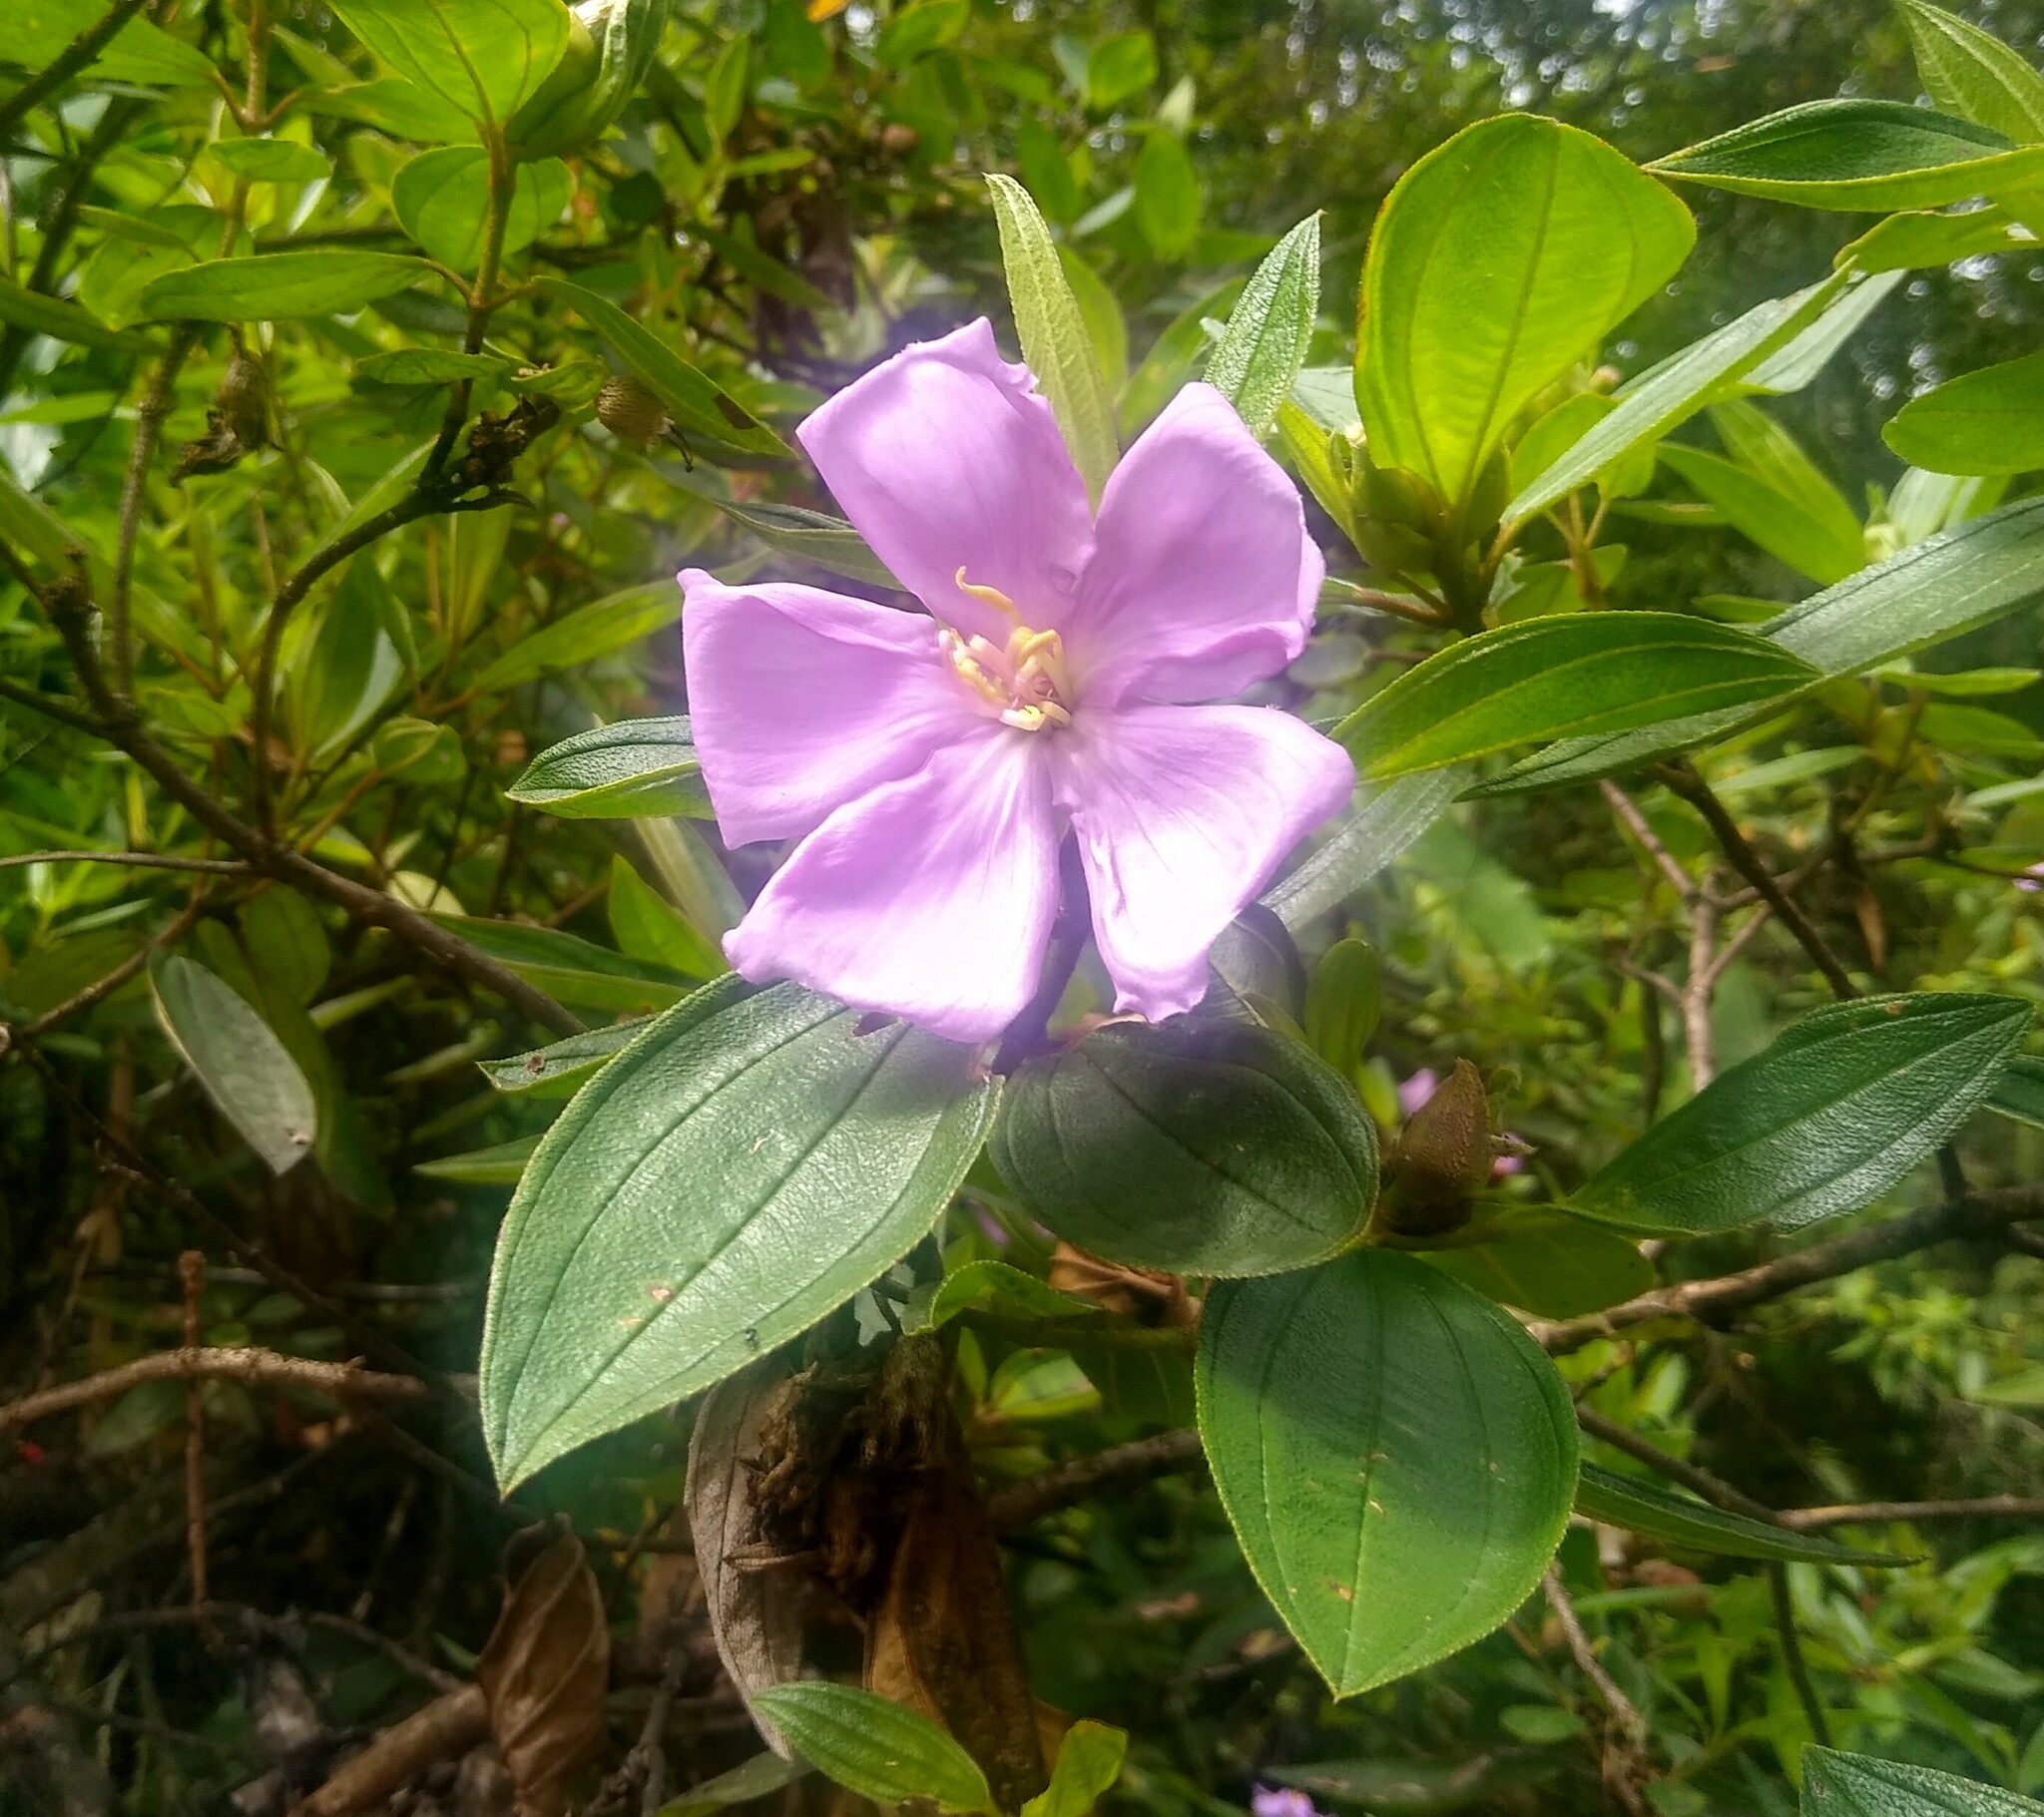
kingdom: Plantae
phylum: Tracheophyta
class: Magnoliopsida
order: Myrtales
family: Melastomataceae
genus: Melastoma
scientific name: Melastoma malabathricum
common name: Indian-rhododendron
